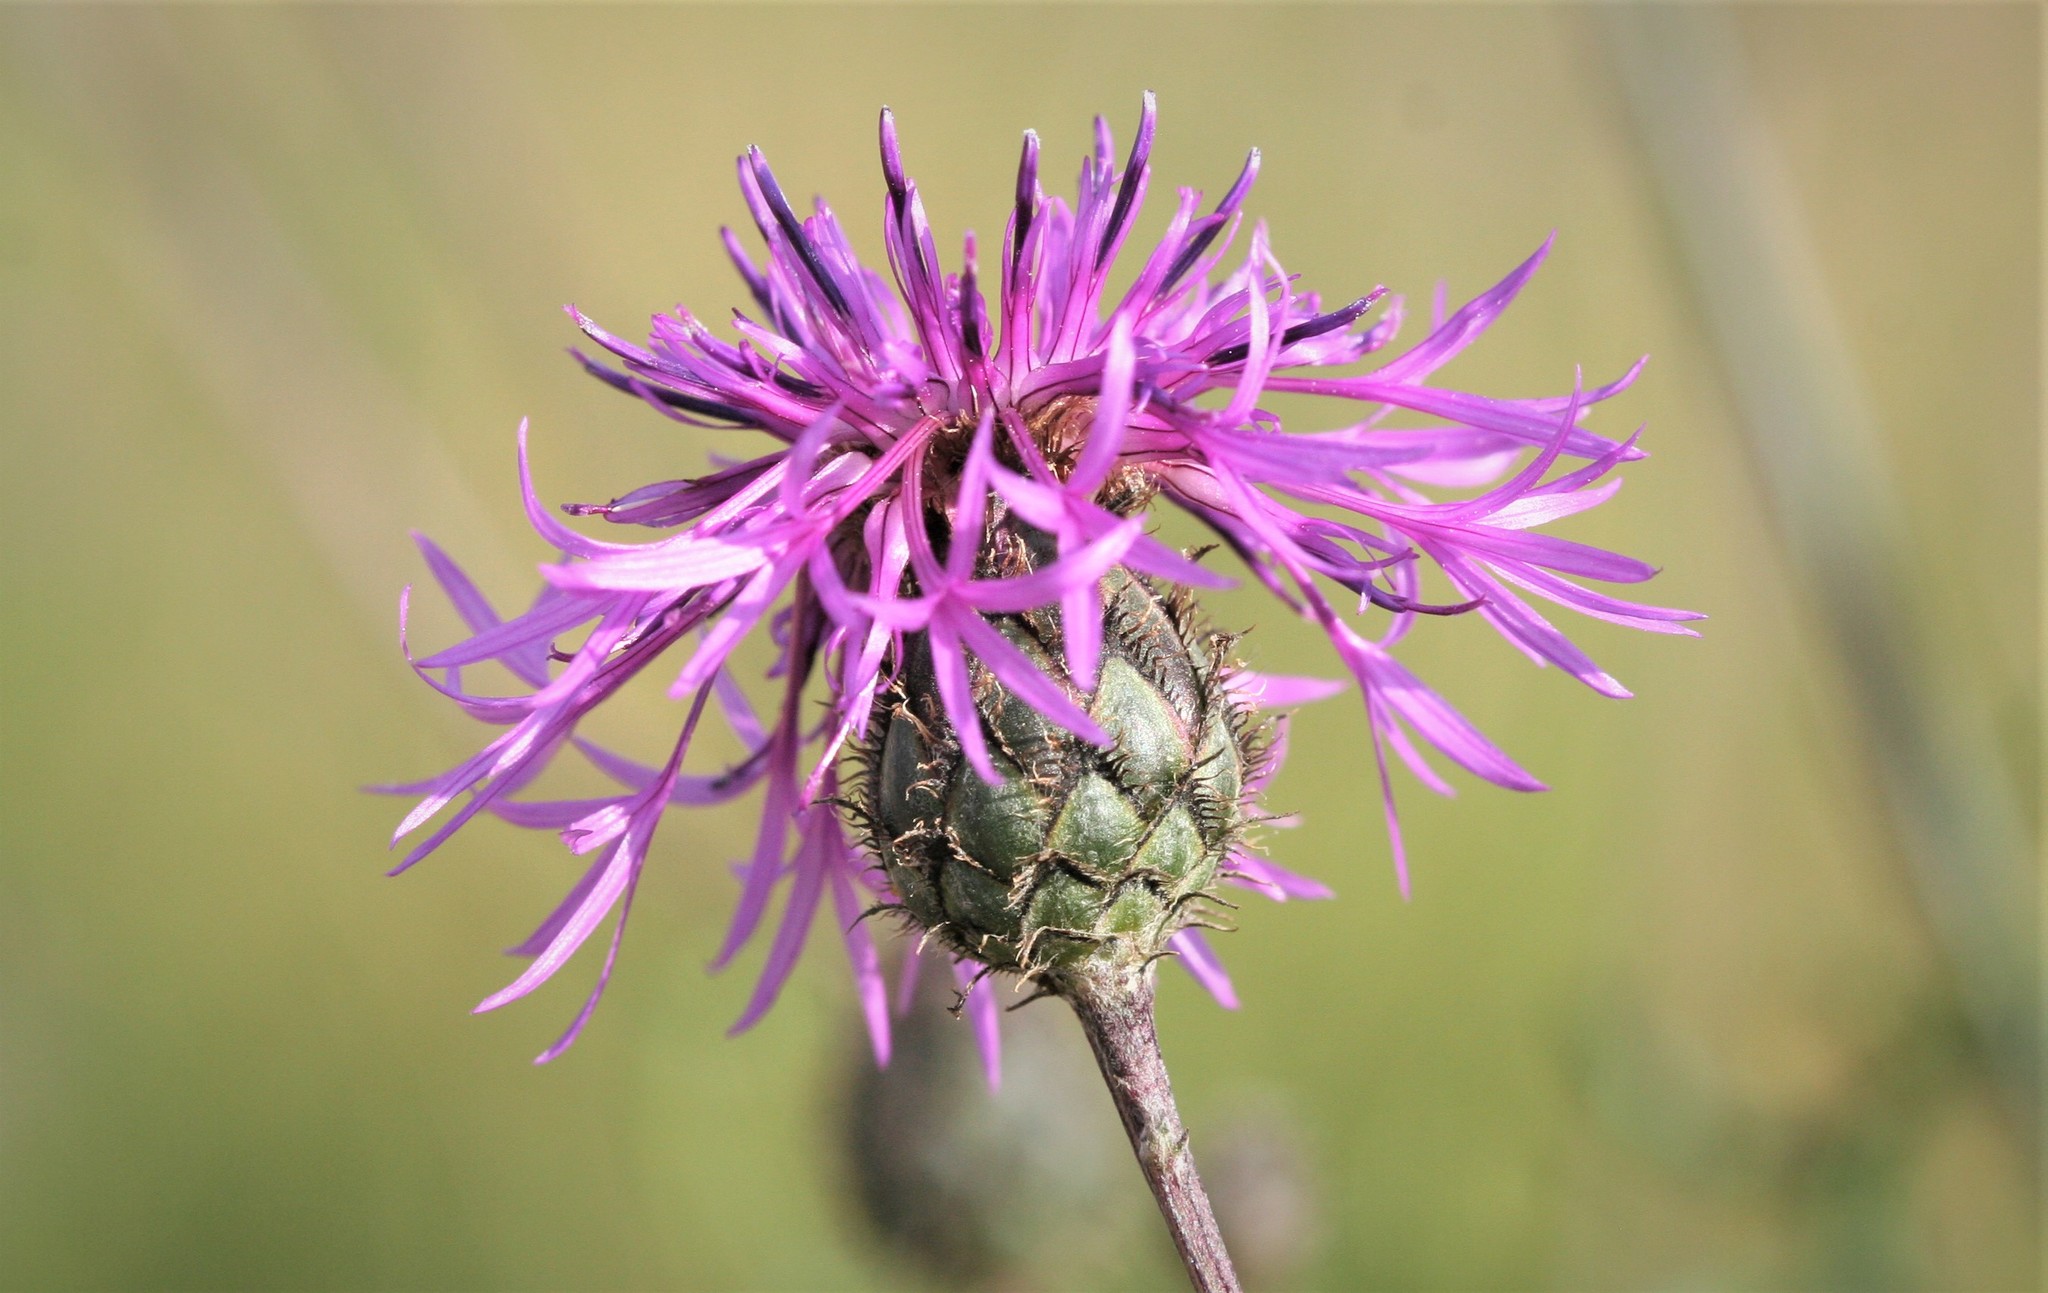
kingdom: Plantae
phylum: Tracheophyta
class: Magnoliopsida
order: Asterales
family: Asteraceae
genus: Centaurea
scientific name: Centaurea scabiosa
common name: Greater knapweed
